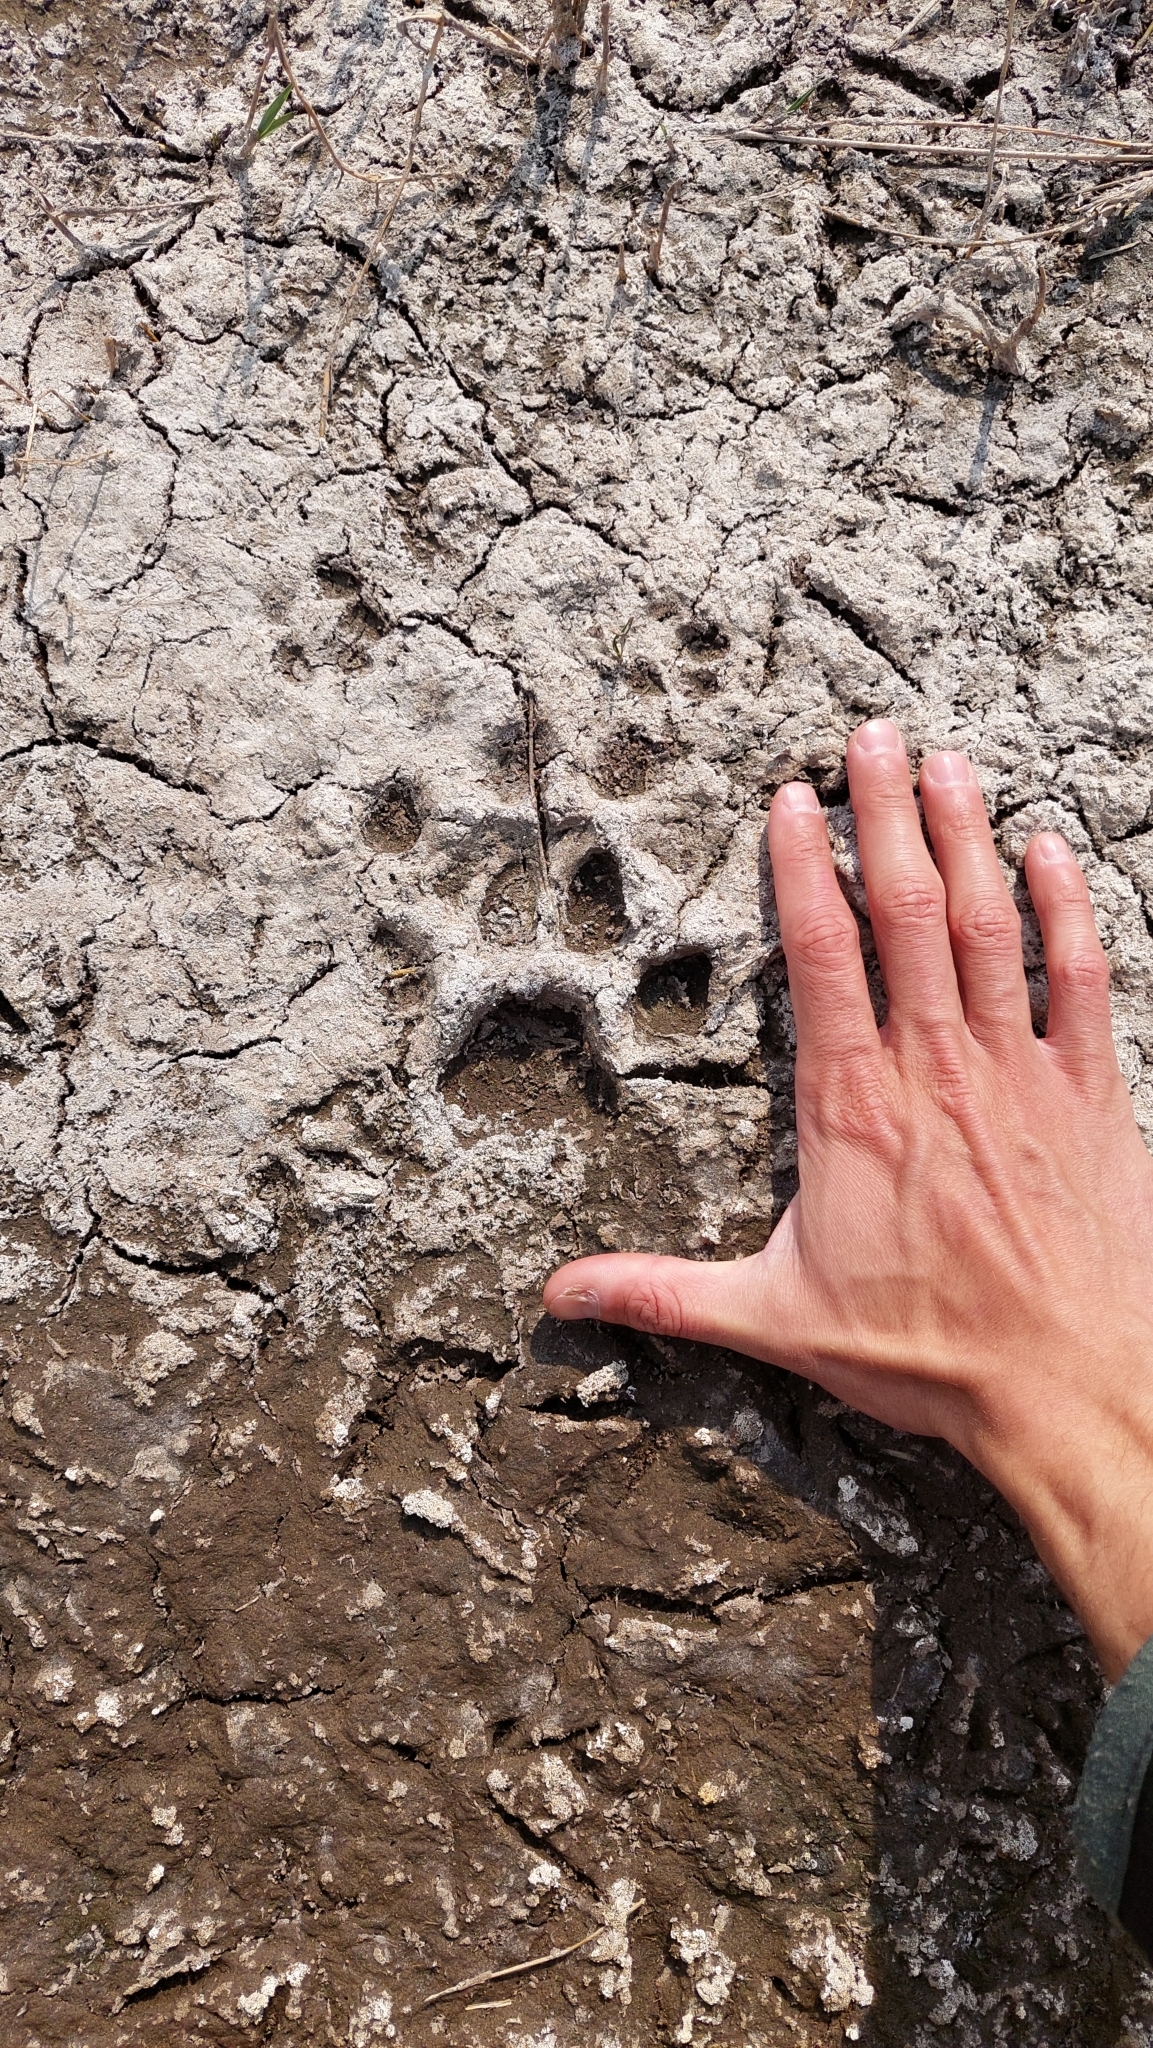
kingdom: Animalia
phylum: Chordata
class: Mammalia
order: Carnivora
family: Felidae
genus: Puma
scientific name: Puma concolor
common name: Puma
